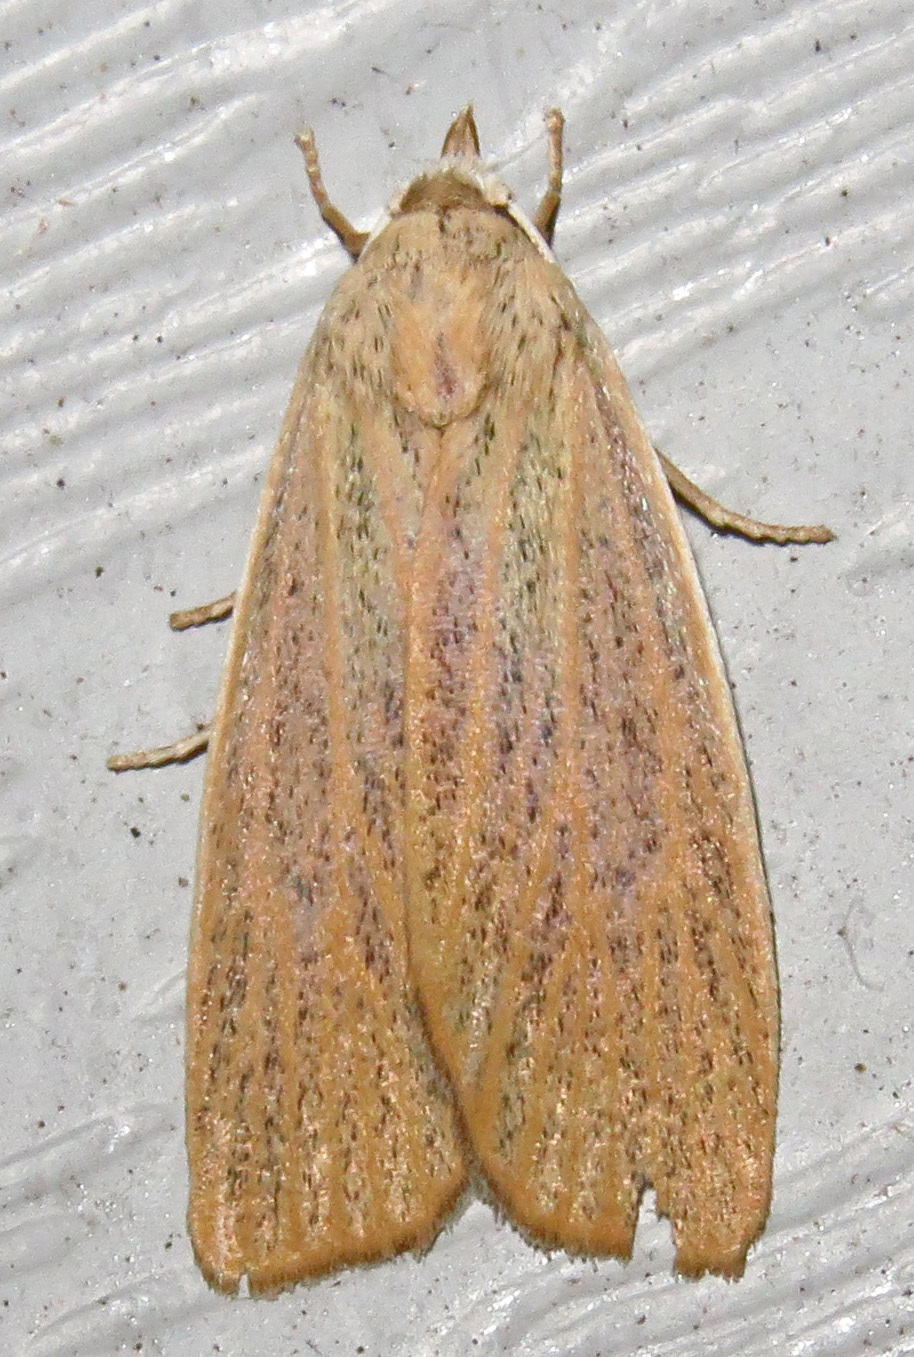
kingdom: Animalia
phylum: Arthropoda
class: Insecta
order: Lepidoptera
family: Erebidae
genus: Palpidia
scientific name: Palpidia pallidior
